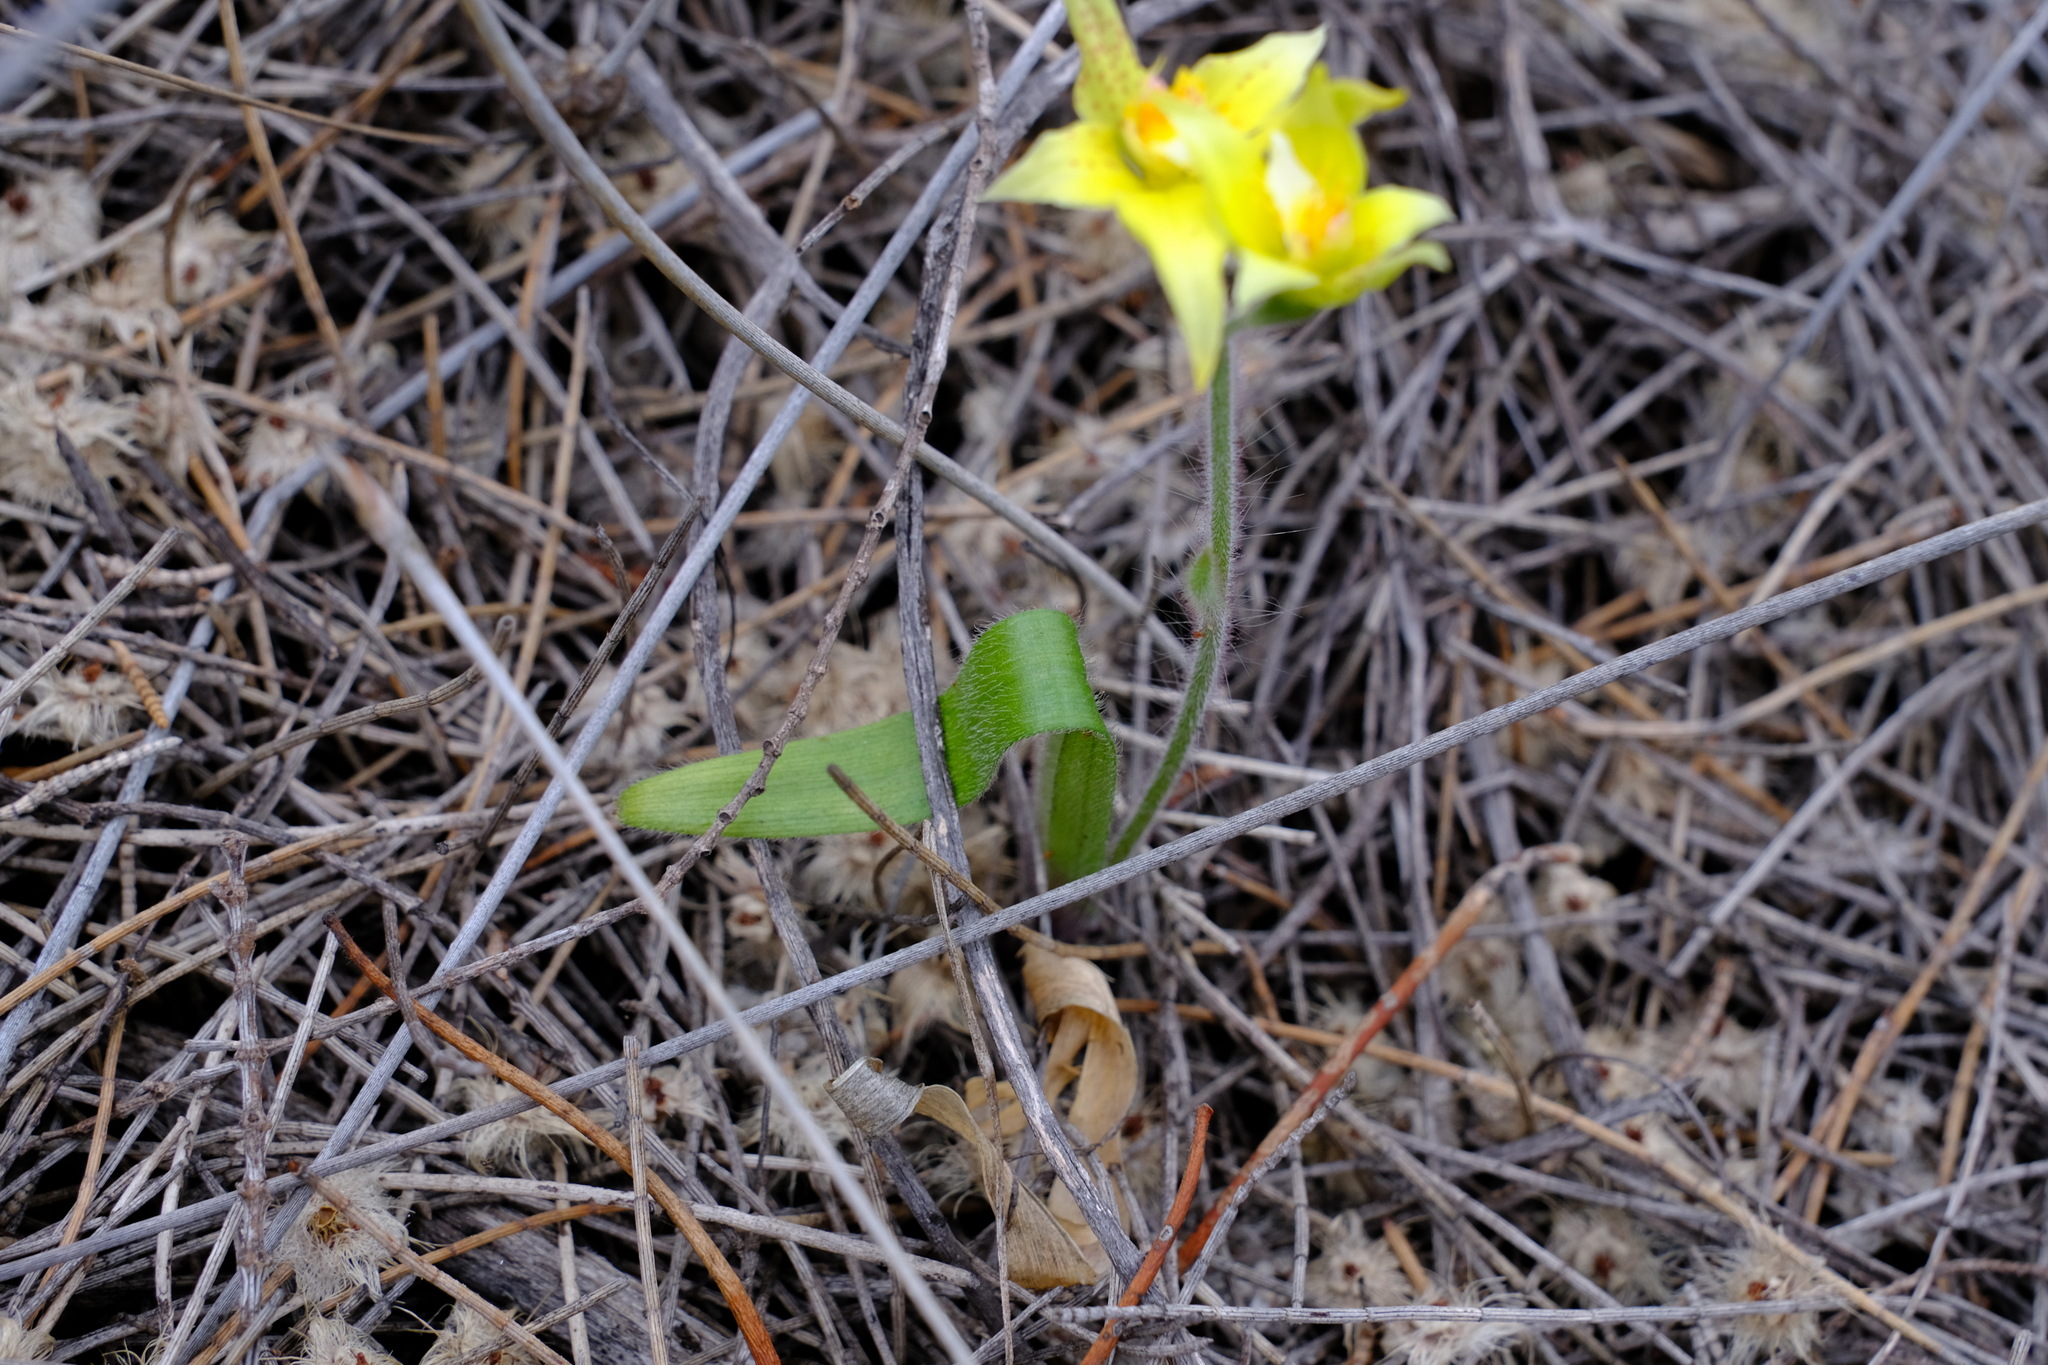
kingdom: Plantae
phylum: Tracheophyta
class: Liliopsida
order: Asparagales
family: Orchidaceae
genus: Caladenia
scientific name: Caladenia flava
